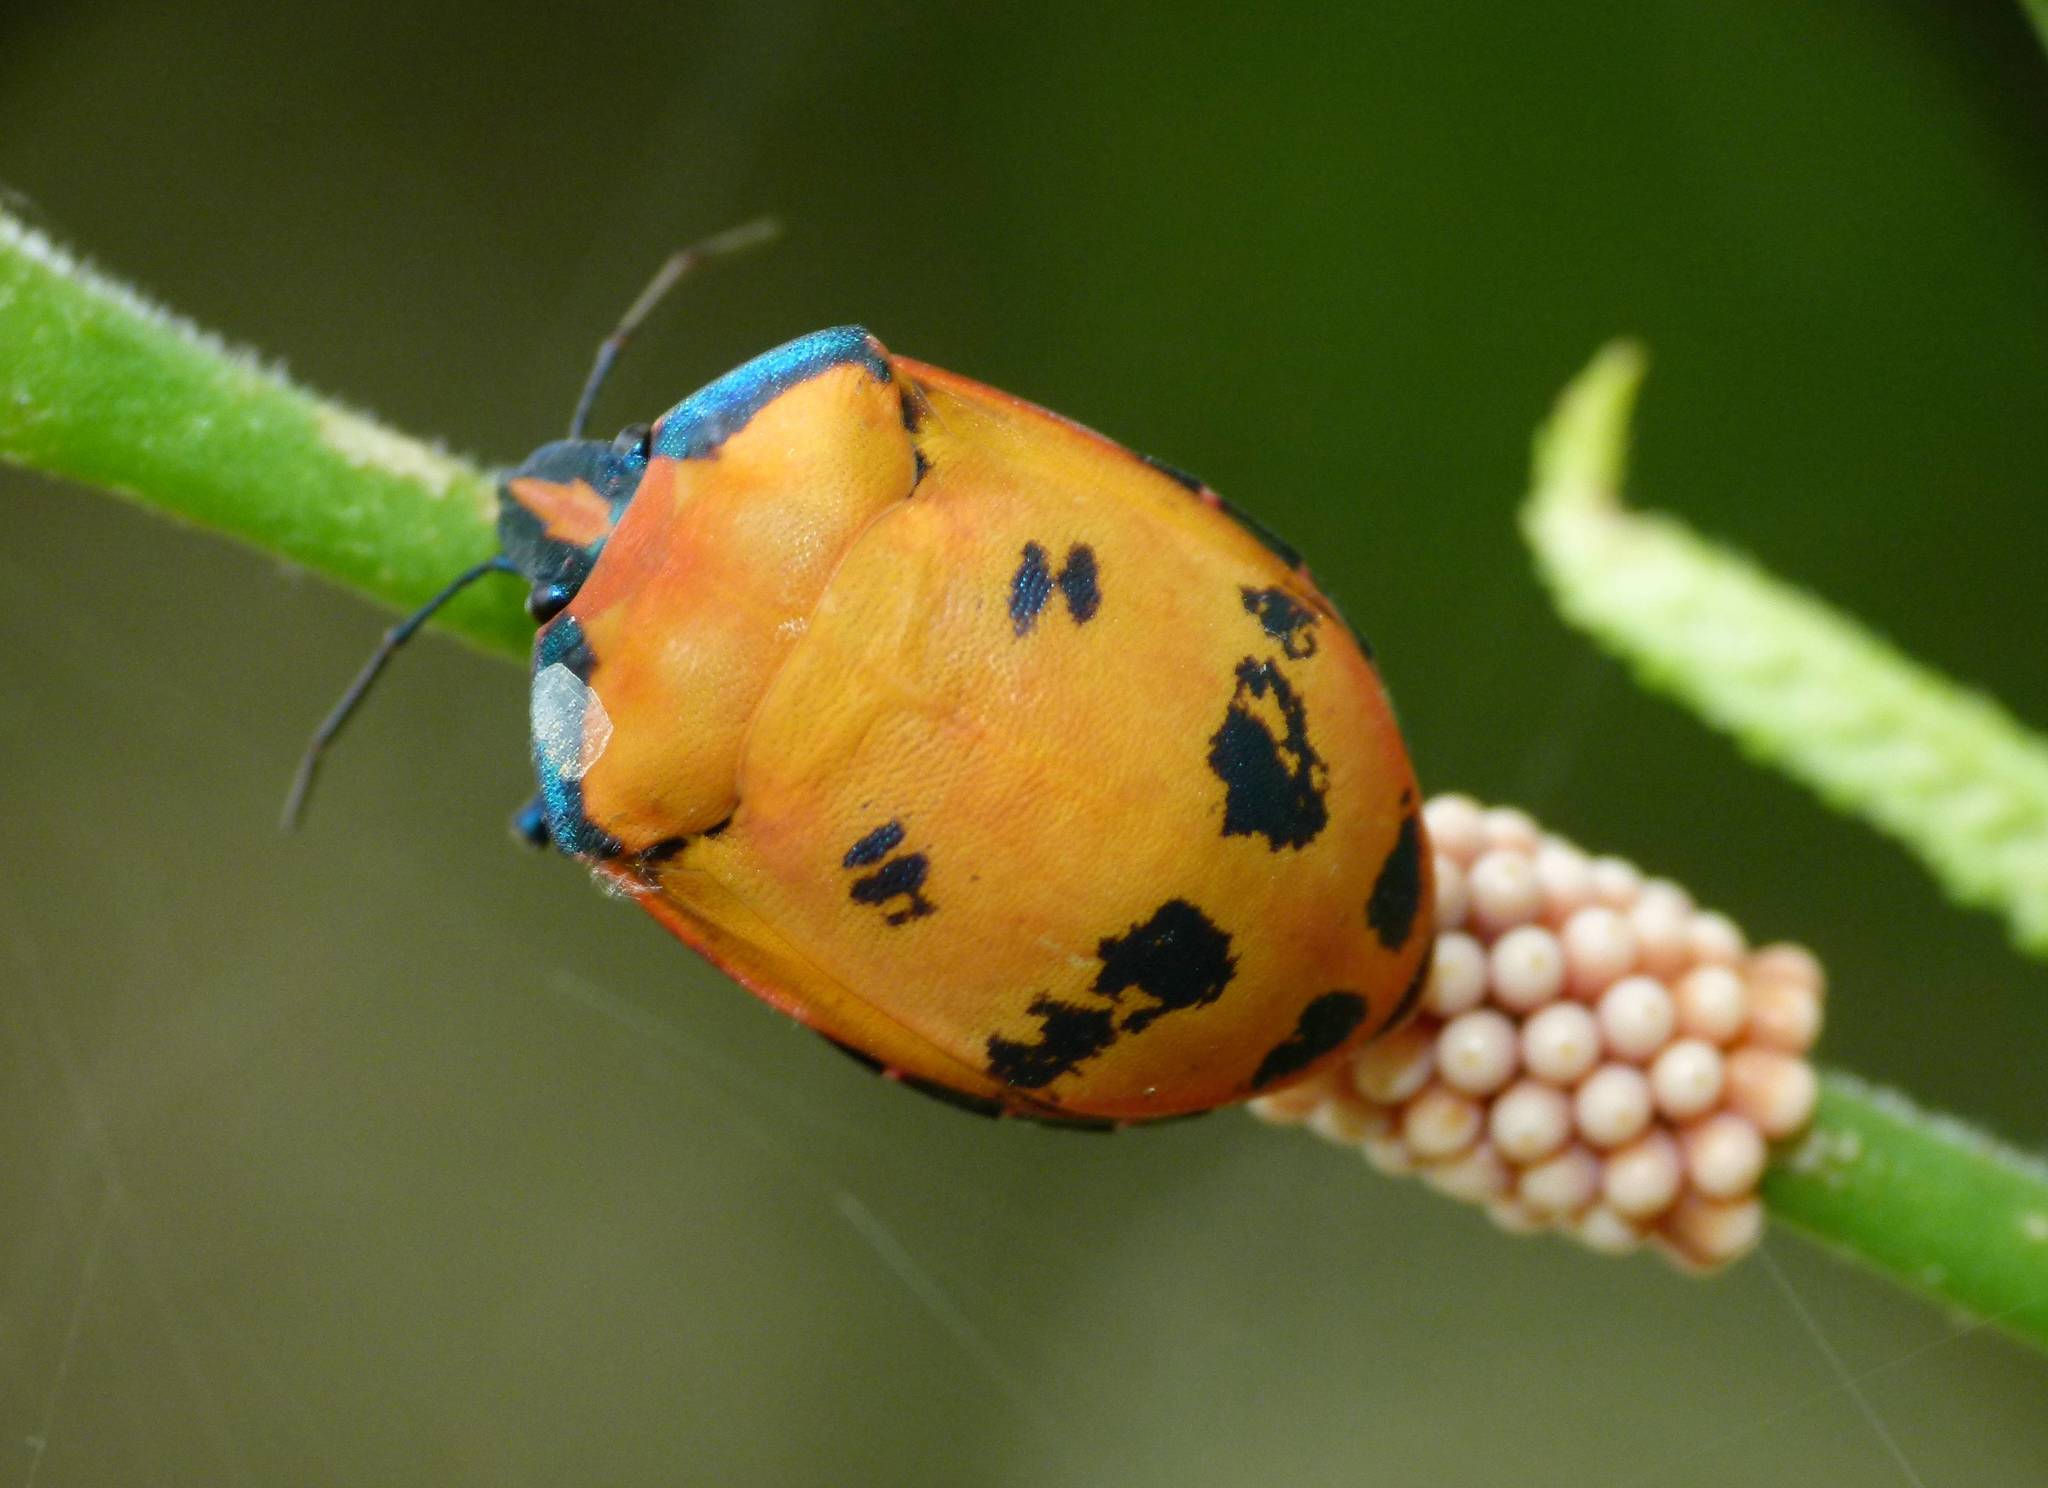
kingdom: Animalia
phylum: Arthropoda
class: Insecta
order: Hemiptera
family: Scutelleridae
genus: Tectocoris
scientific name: Tectocoris diophthalmus
